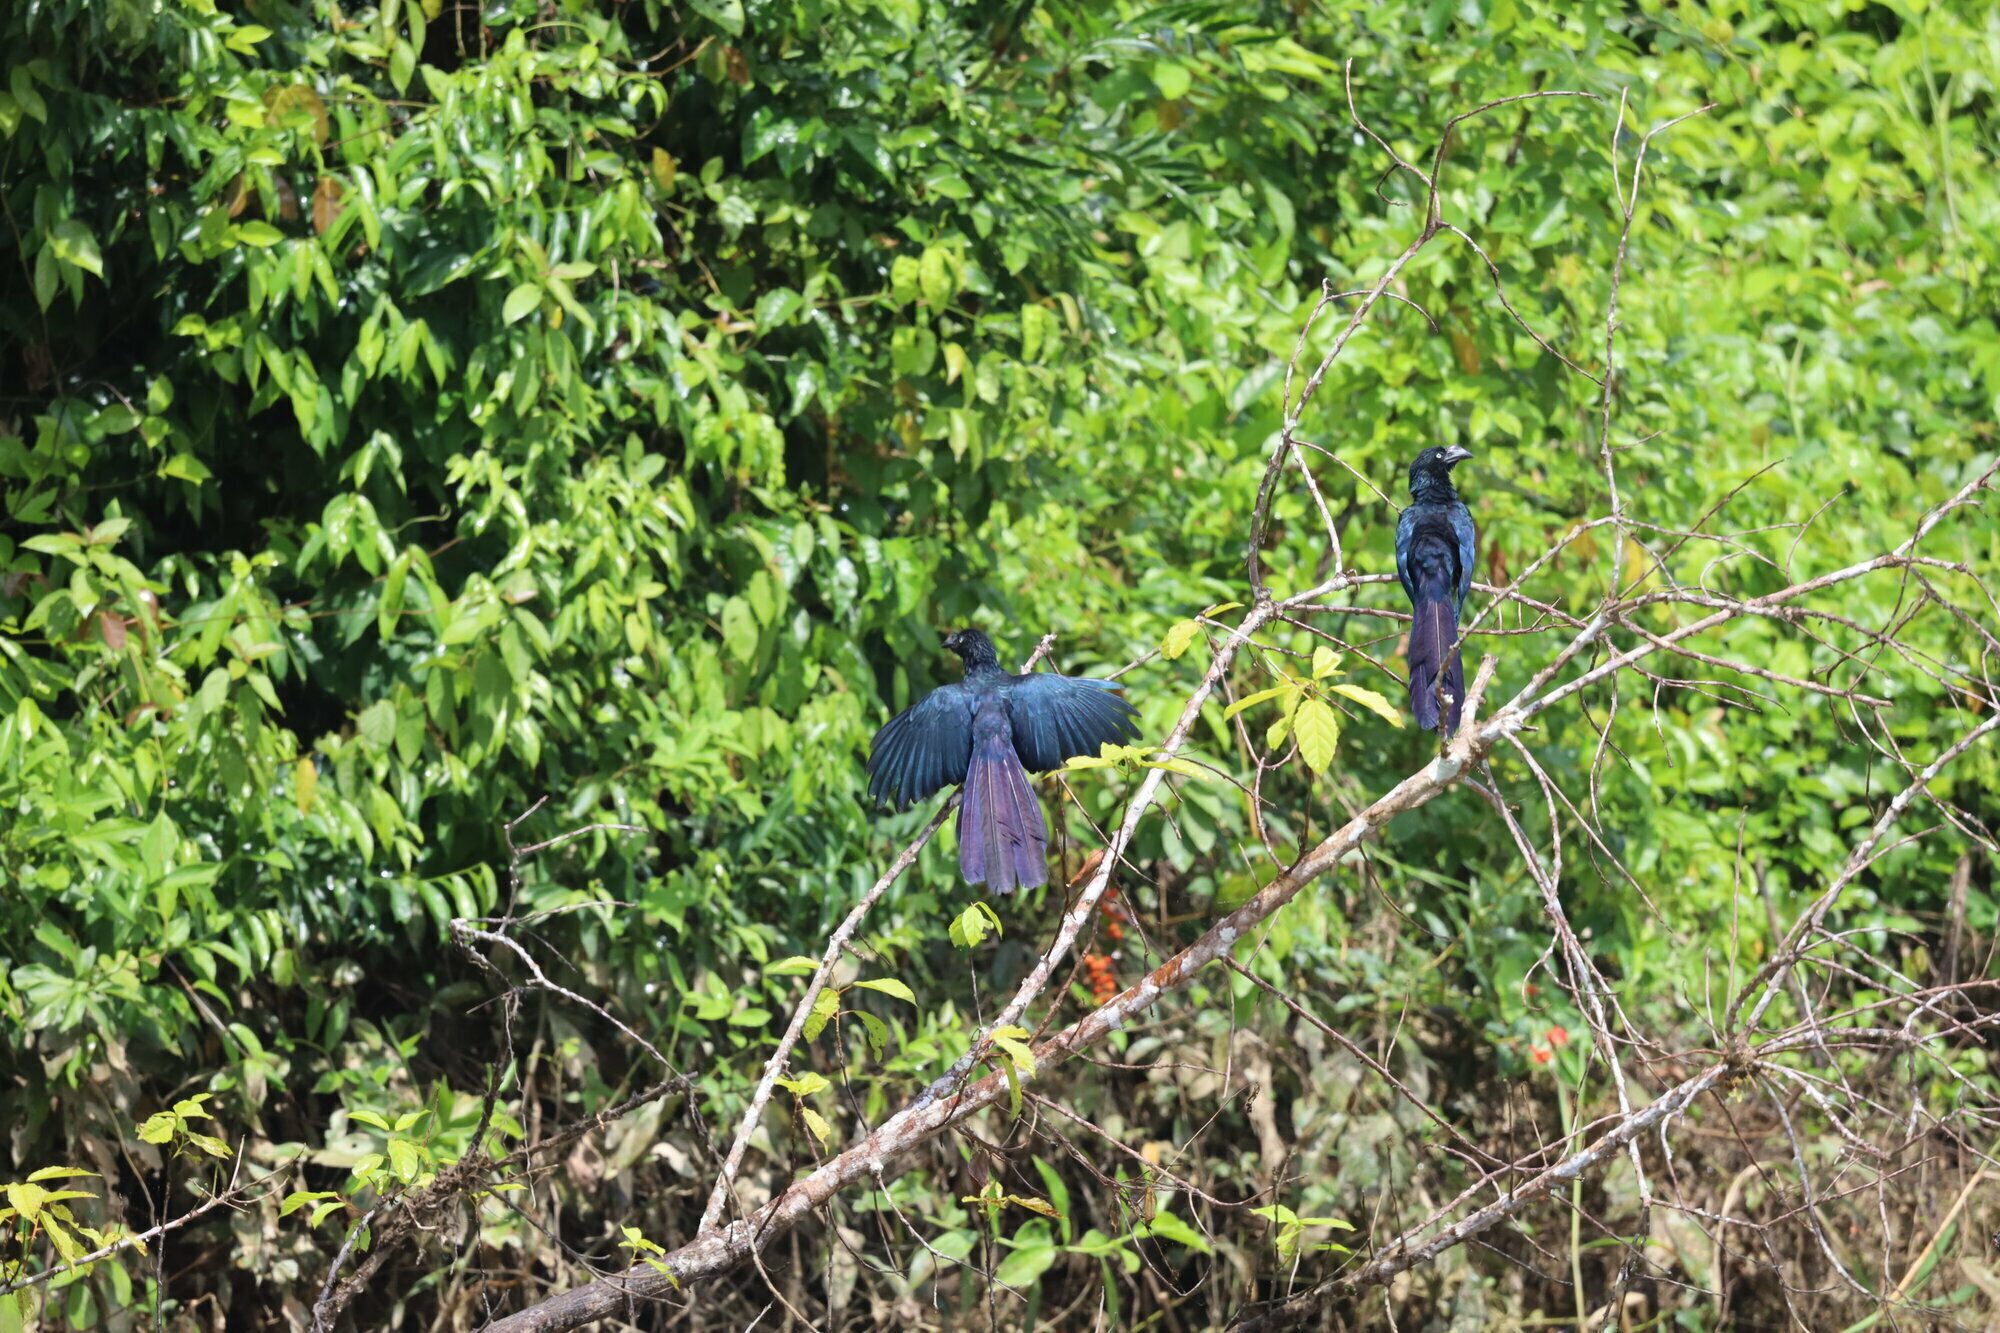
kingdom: Animalia
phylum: Chordata
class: Aves
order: Cuculiformes
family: Cuculidae
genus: Crotophaga
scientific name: Crotophaga major
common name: Greater ani
